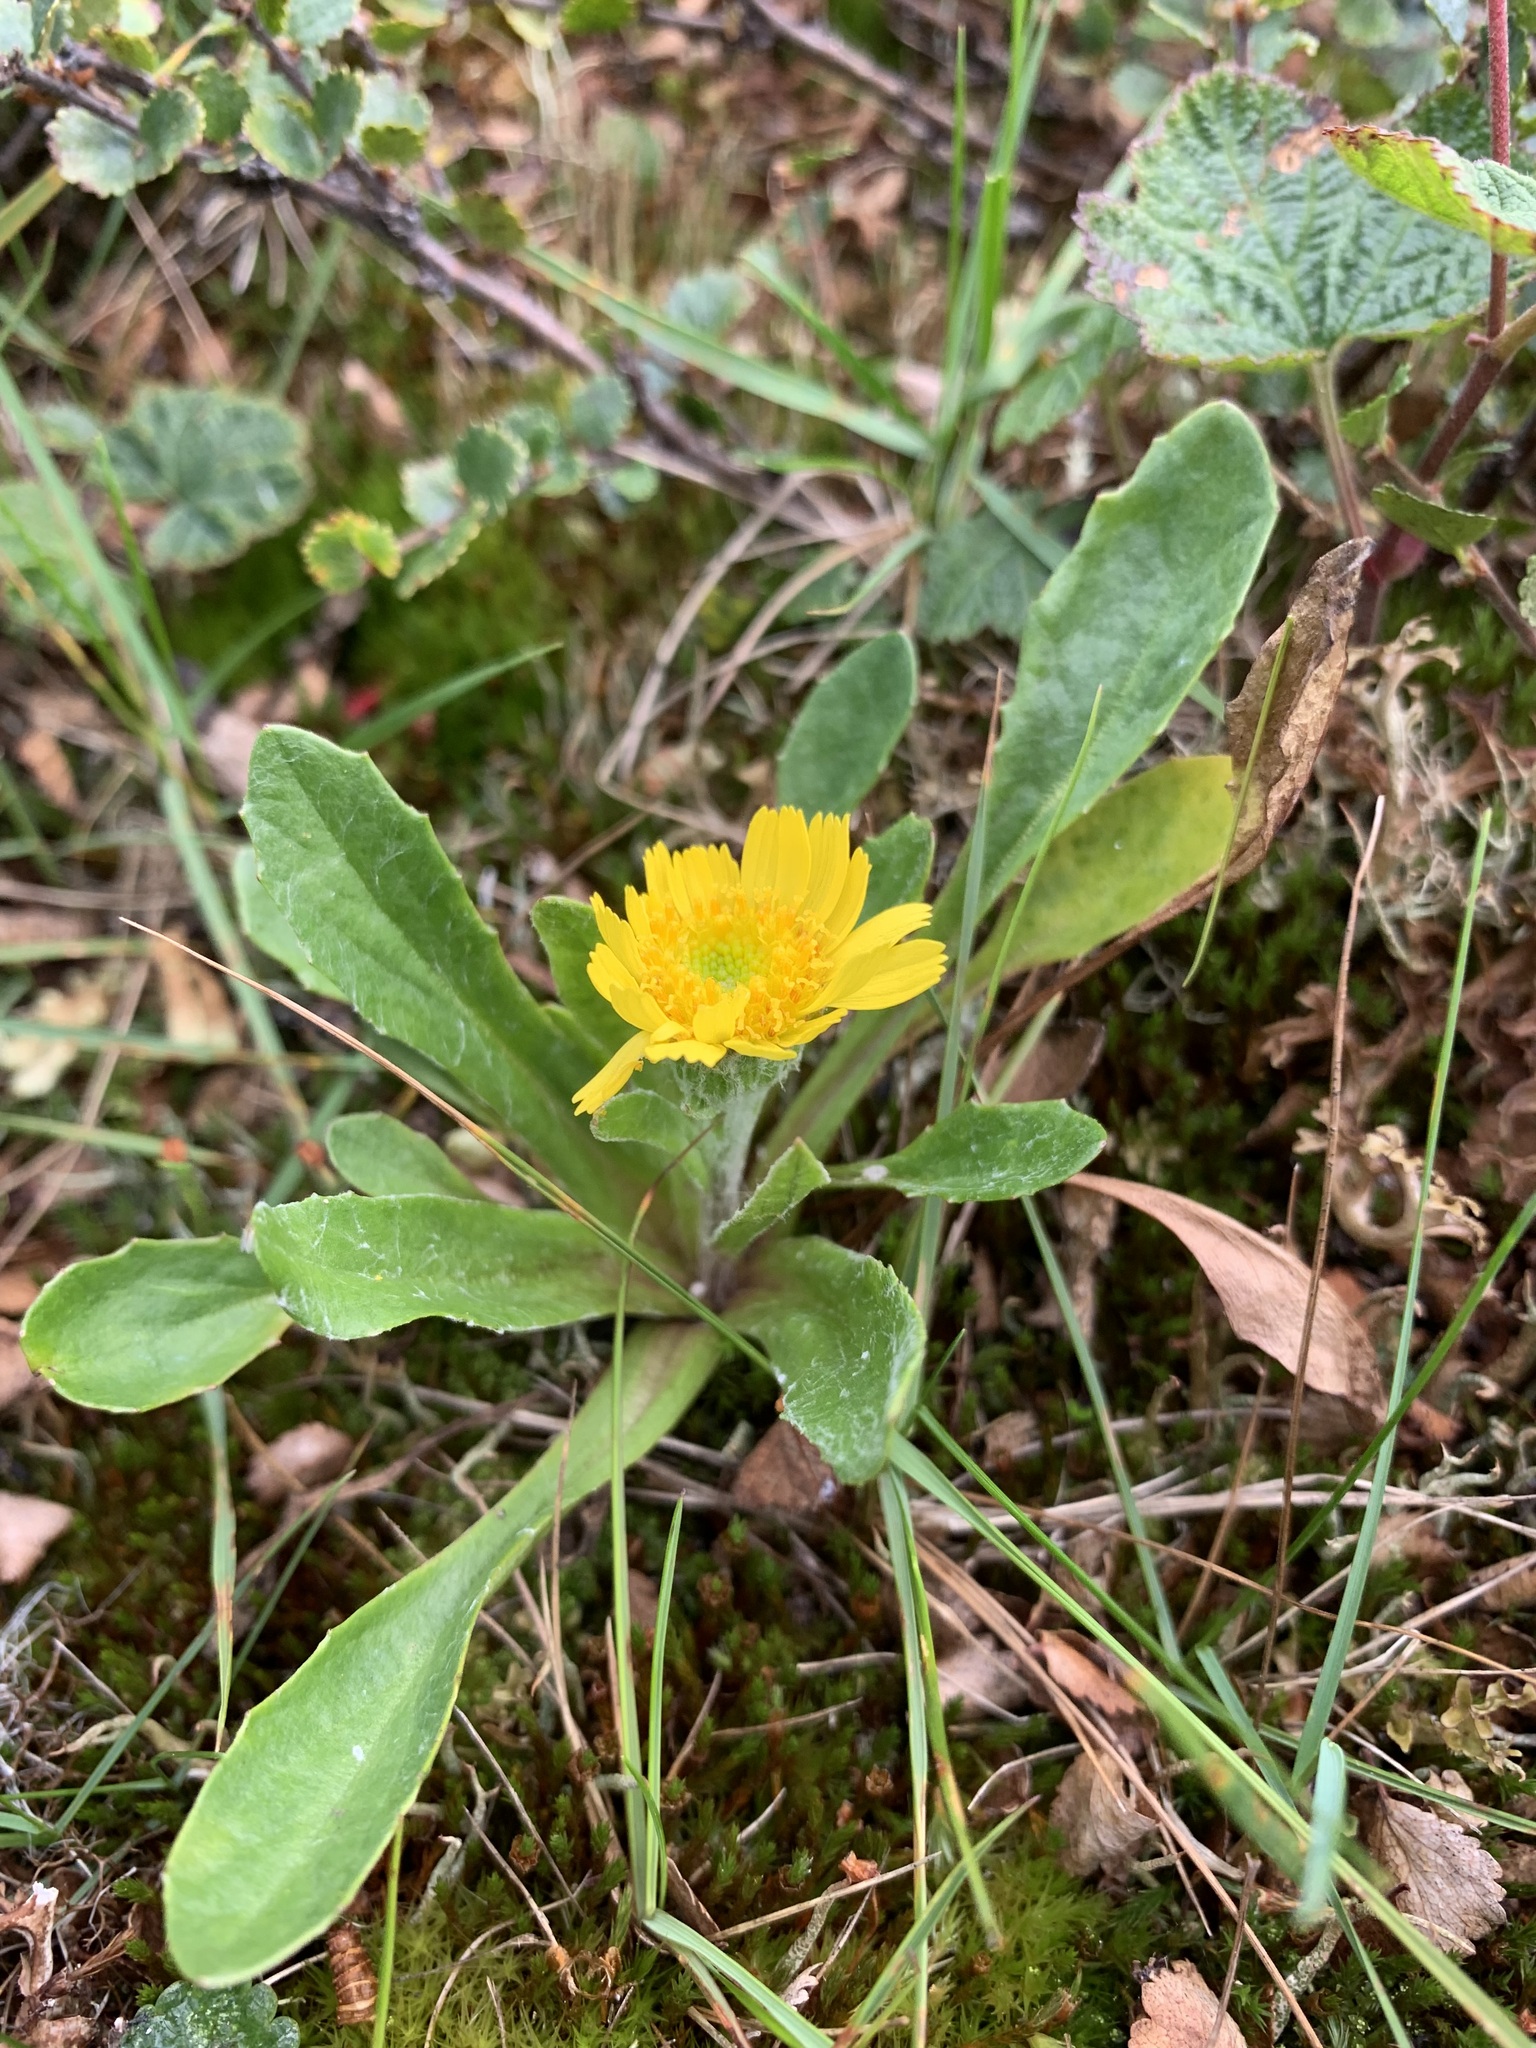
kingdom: Plantae
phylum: Tracheophyta
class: Magnoliopsida
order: Asterales
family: Asteraceae
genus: Tephroseris
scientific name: Tephroseris integrifolia
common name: Field fleawort
